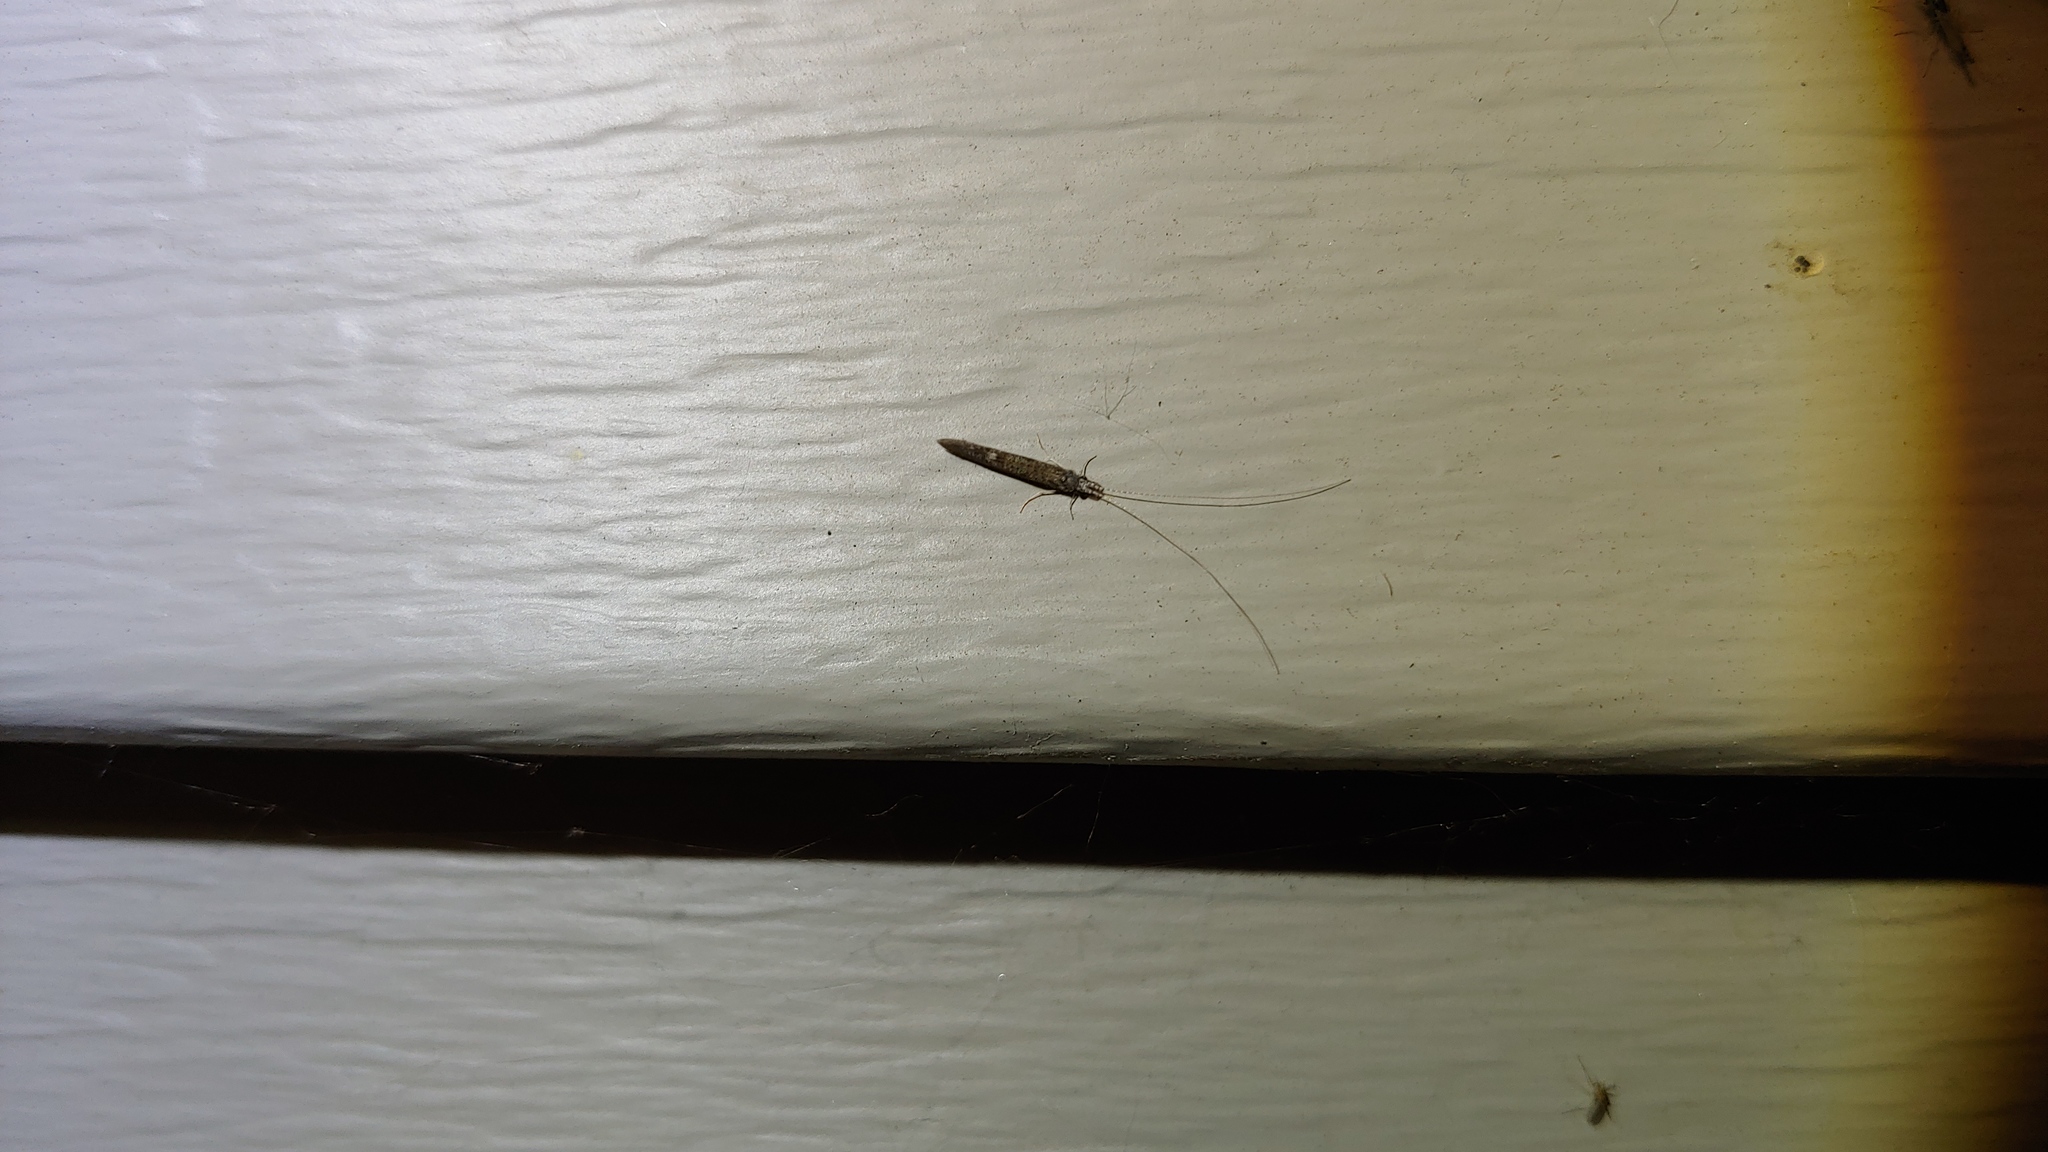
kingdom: Animalia
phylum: Arthropoda
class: Insecta
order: Trichoptera
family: Leptoceridae
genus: Leptocerus
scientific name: Leptocerus americanus
